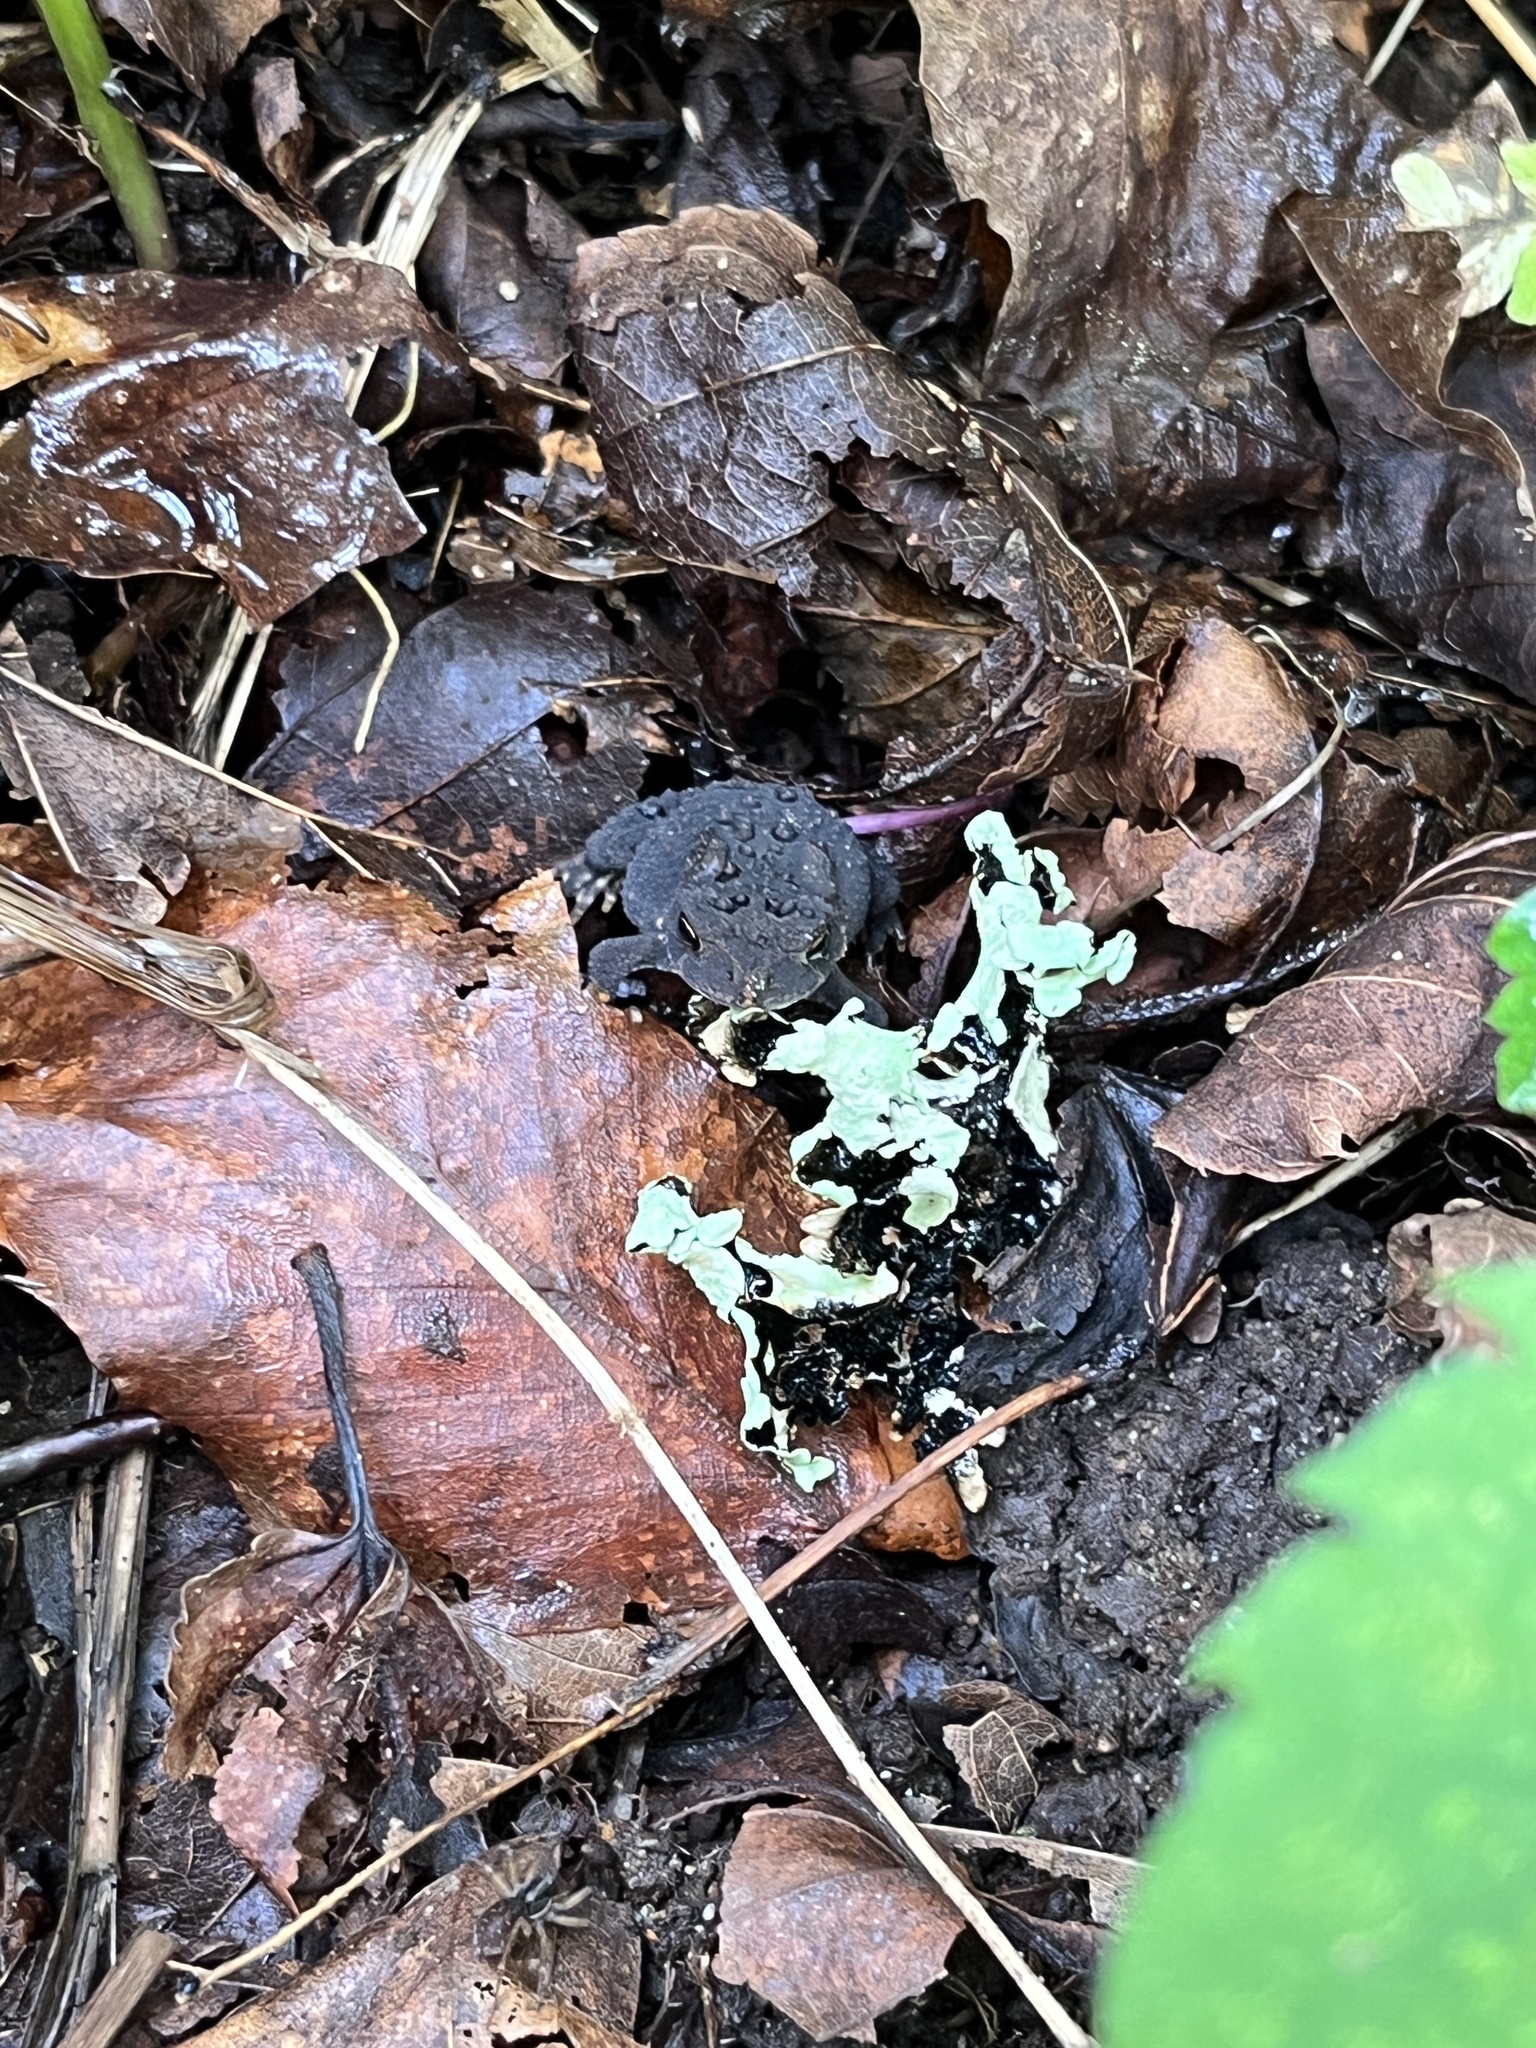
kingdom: Animalia
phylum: Chordata
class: Amphibia
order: Anura
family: Bufonidae
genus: Anaxyrus
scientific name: Anaxyrus americanus
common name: American toad
